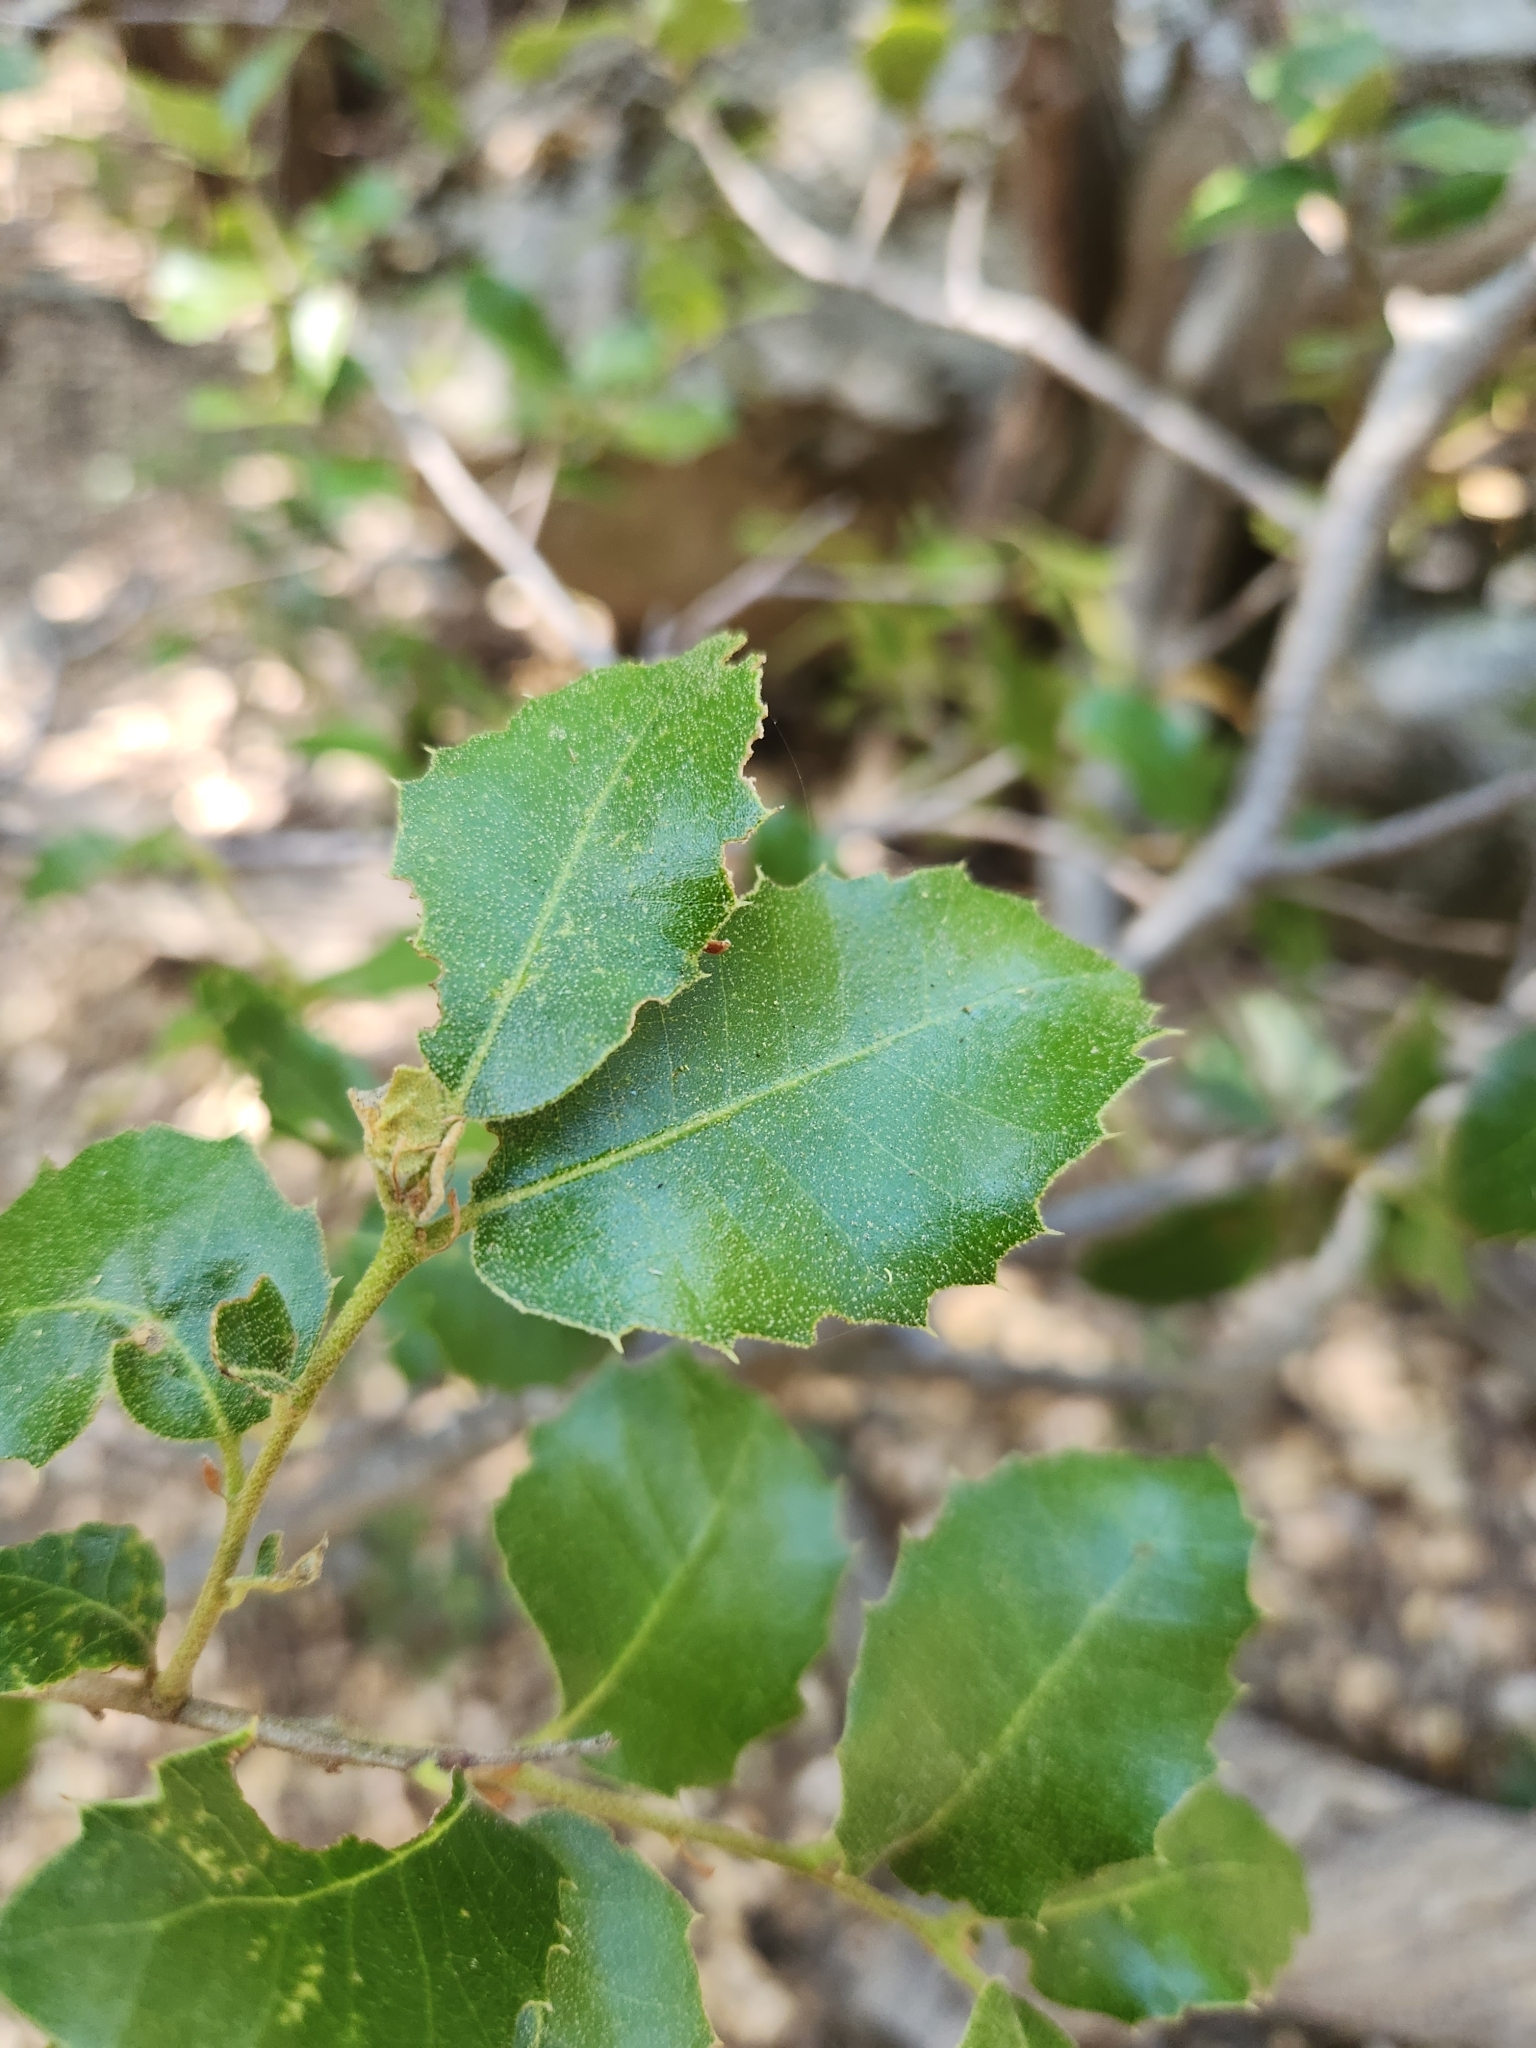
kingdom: Plantae
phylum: Tracheophyta
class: Magnoliopsida
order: Fagales
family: Fagaceae
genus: Quercus
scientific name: Quercus chrysolepis
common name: Canyon live oak
